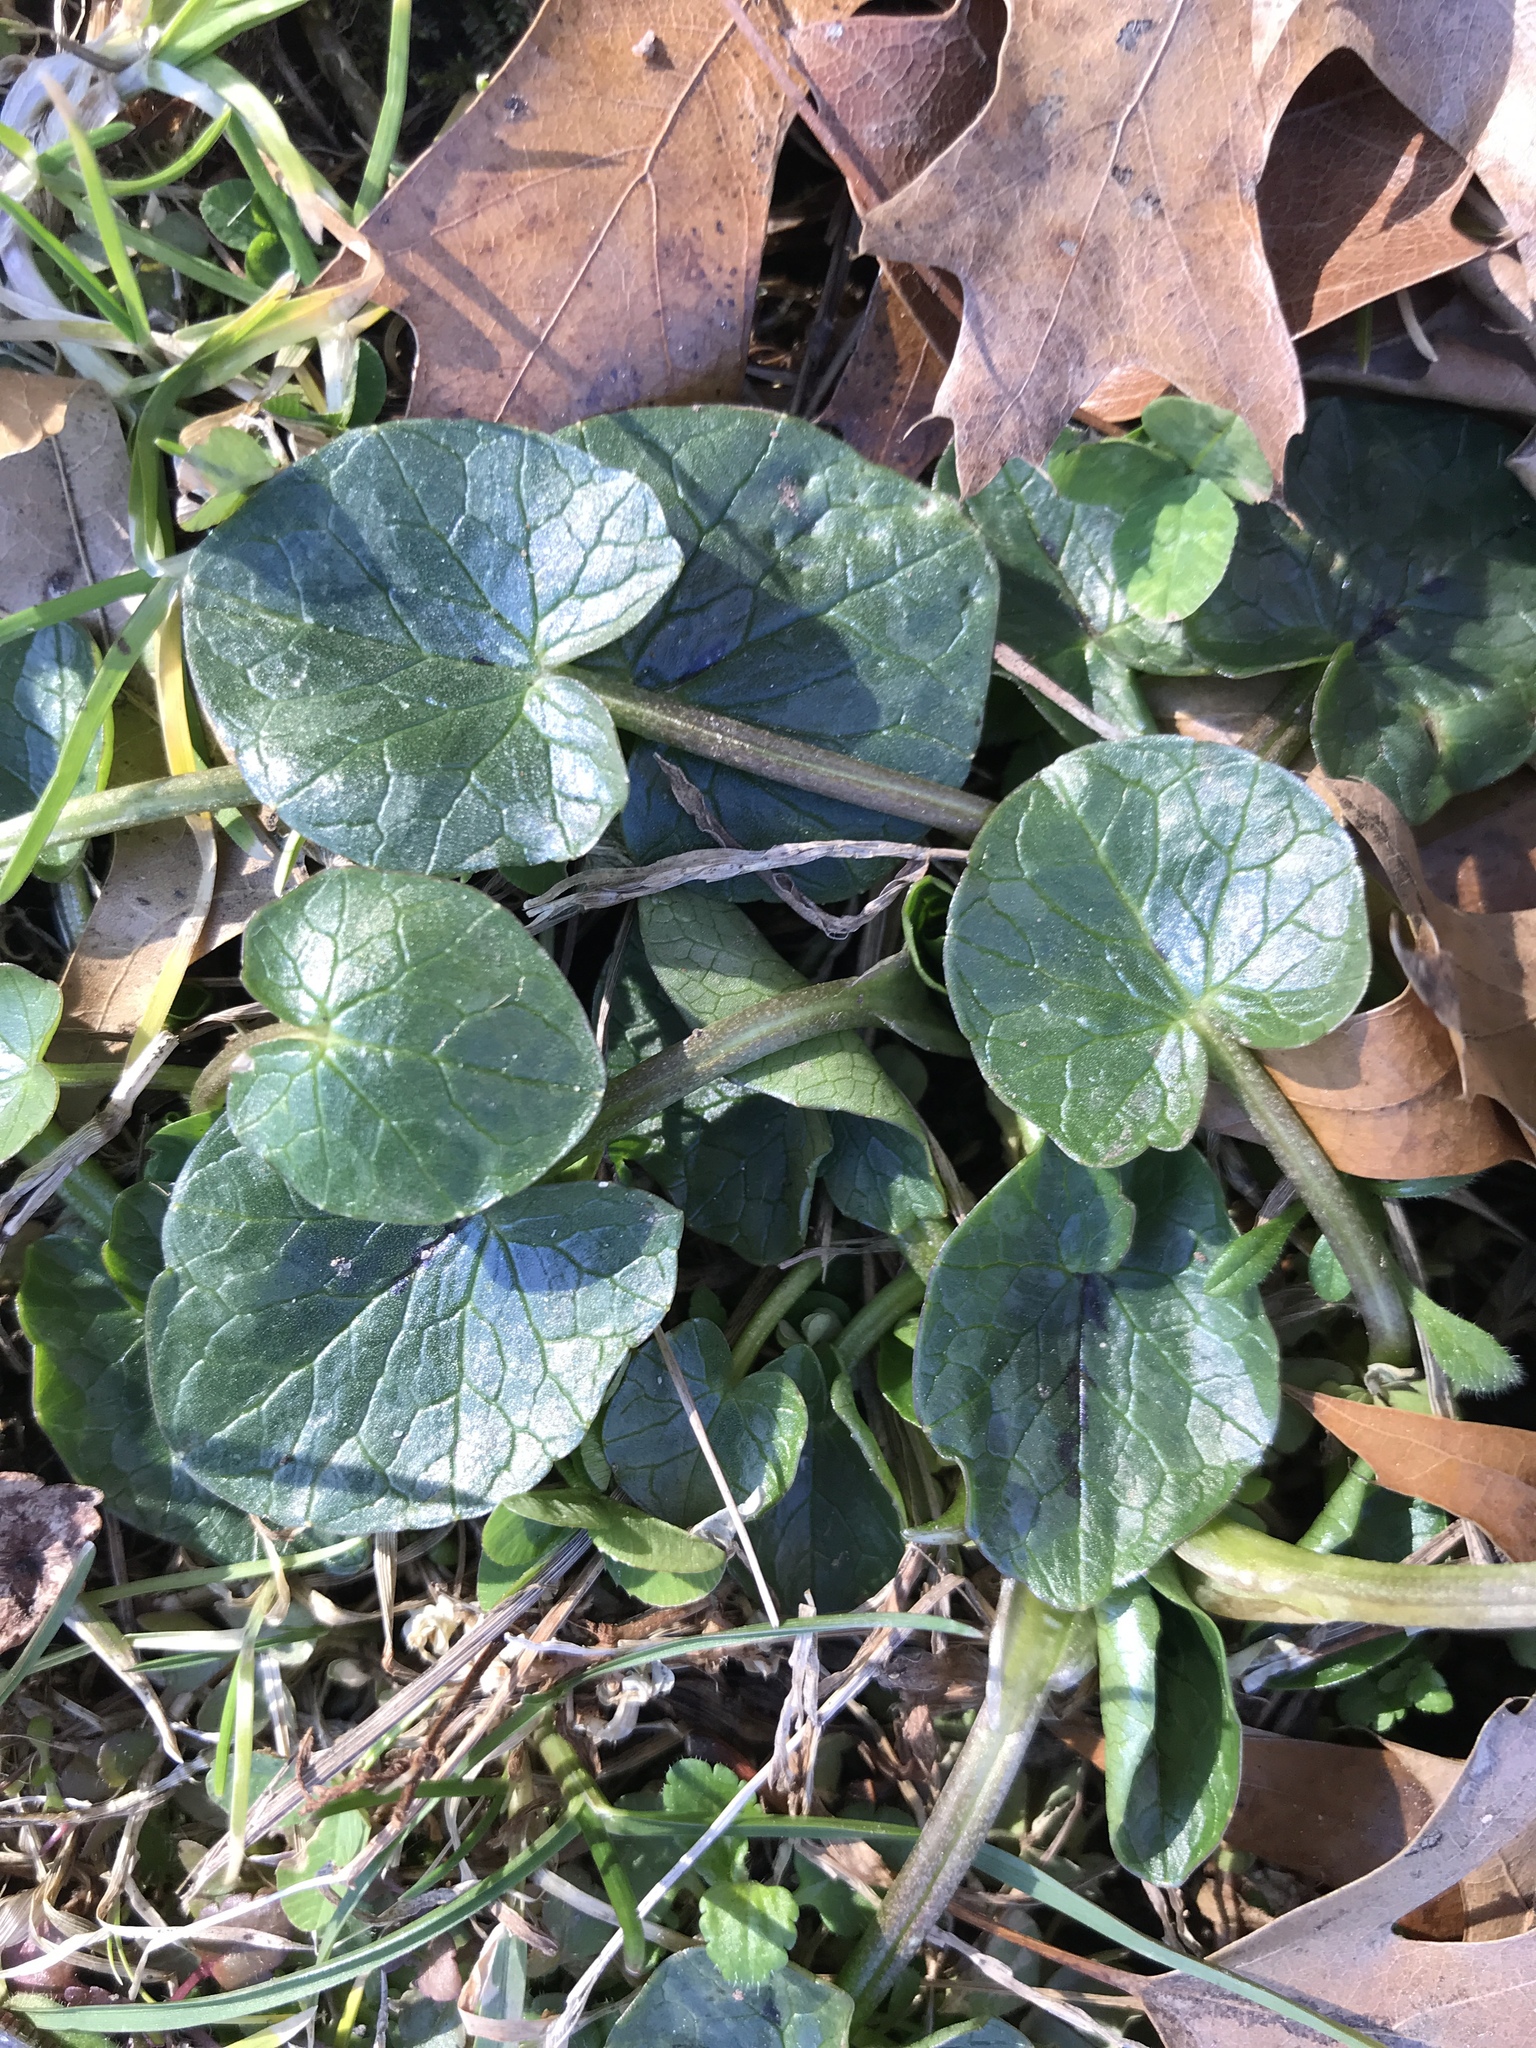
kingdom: Plantae
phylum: Tracheophyta
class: Magnoliopsida
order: Ranunculales
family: Ranunculaceae
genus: Ficaria
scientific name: Ficaria verna
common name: Lesser celandine
